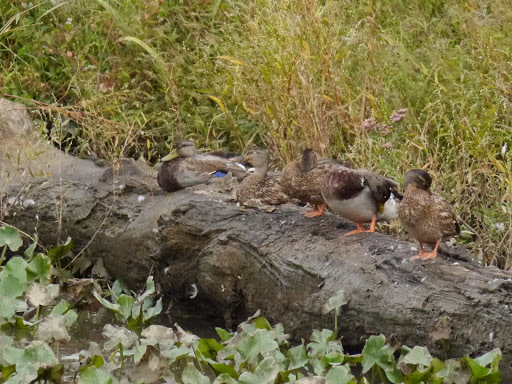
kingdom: Animalia
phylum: Chordata
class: Aves
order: Anseriformes
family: Anatidae
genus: Anas
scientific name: Anas platyrhynchos
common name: Mallard
